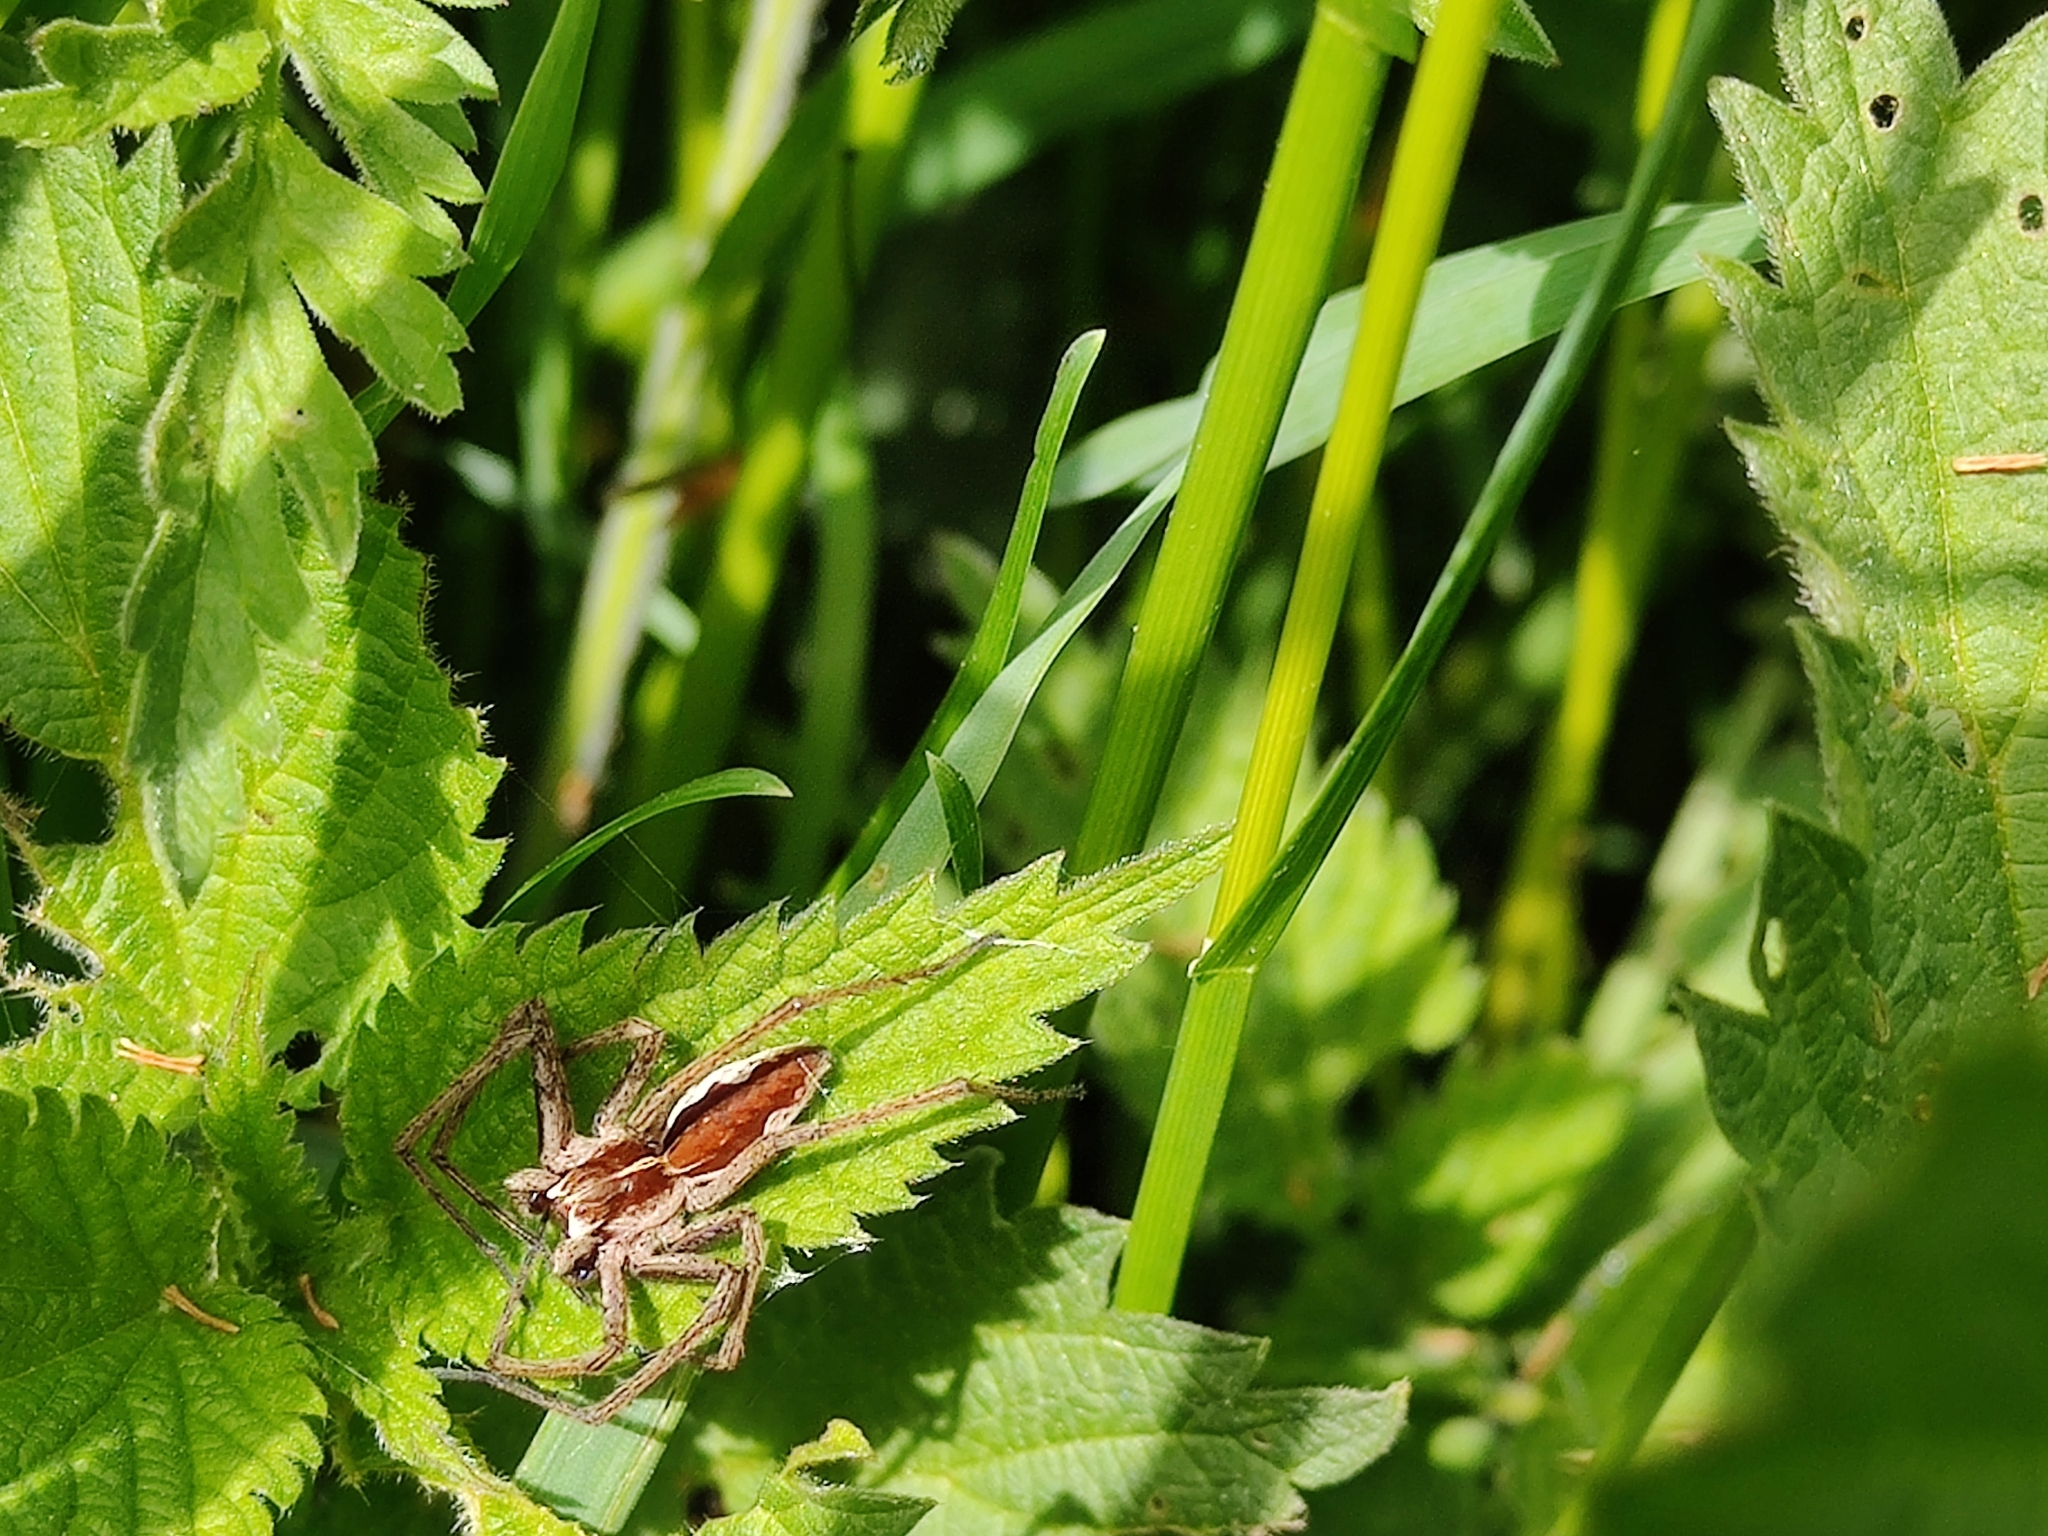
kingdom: Animalia
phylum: Arthropoda
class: Arachnida
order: Araneae
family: Pisauridae
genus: Pisaura
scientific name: Pisaura mirabilis
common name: Tent spider
